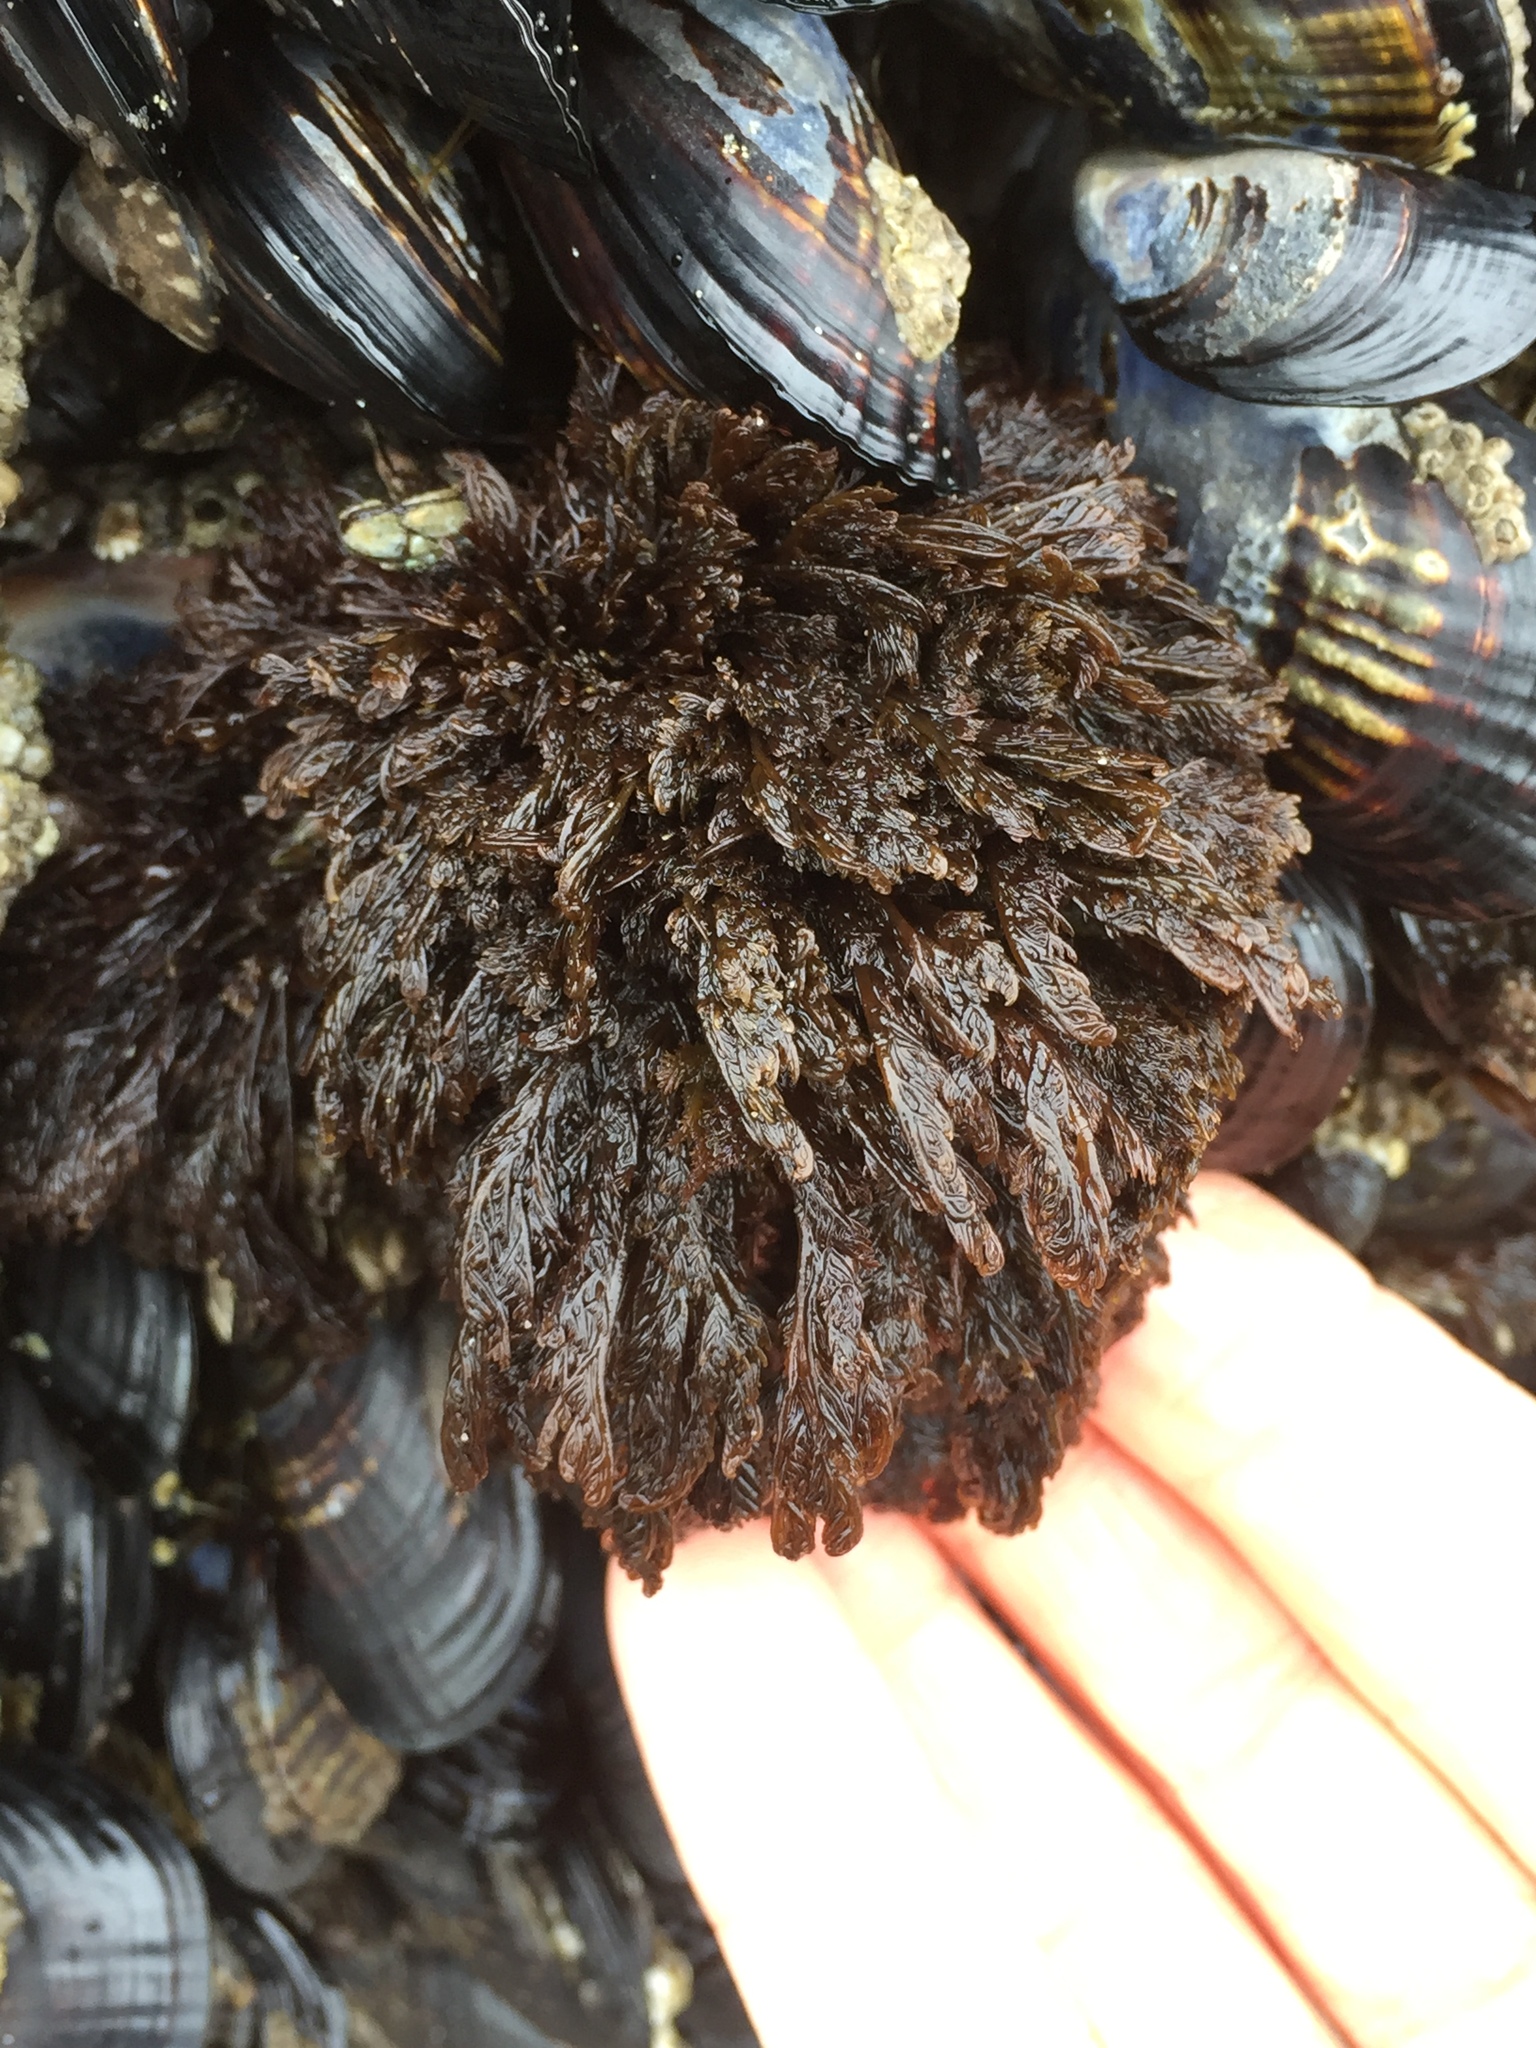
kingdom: Plantae
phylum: Rhodophyta
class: Florideophyceae
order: Ceramiales
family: Ceramiaceae
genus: Microcladia
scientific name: Microcladia borealis
